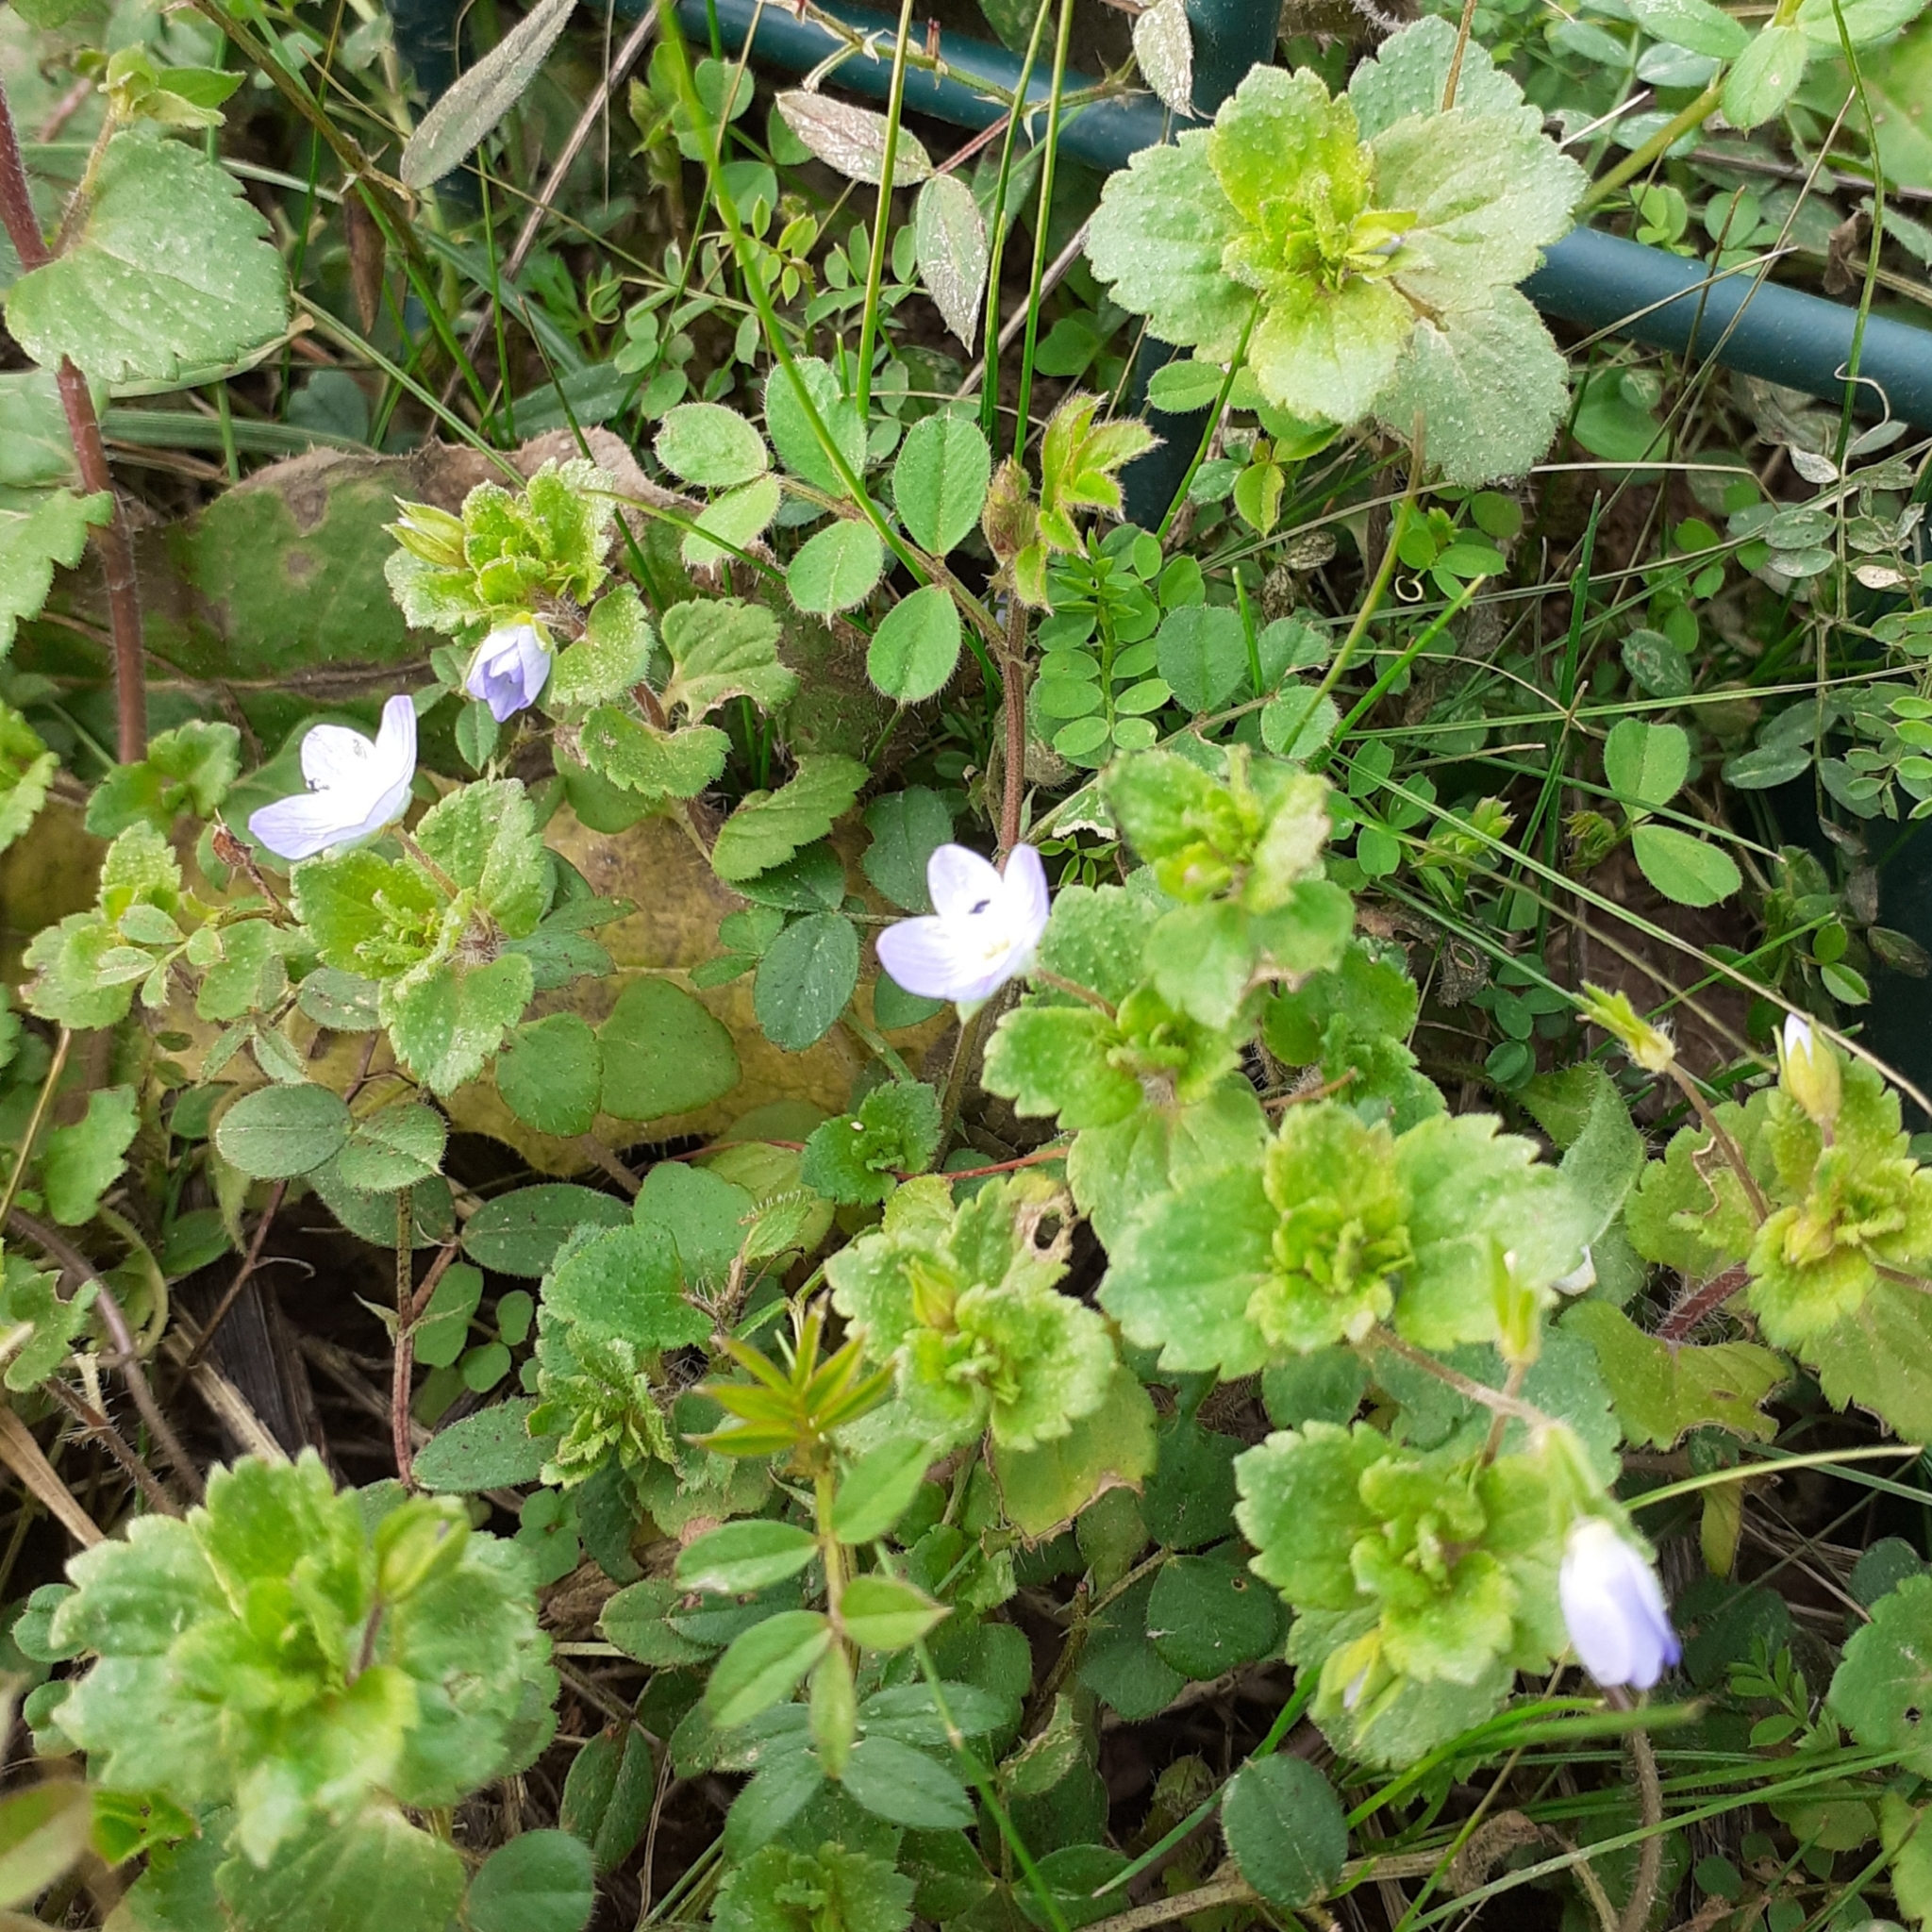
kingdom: Plantae
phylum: Tracheophyta
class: Magnoliopsida
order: Lamiales
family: Plantaginaceae
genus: Veronica
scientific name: Veronica persica
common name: Common field-speedwell
